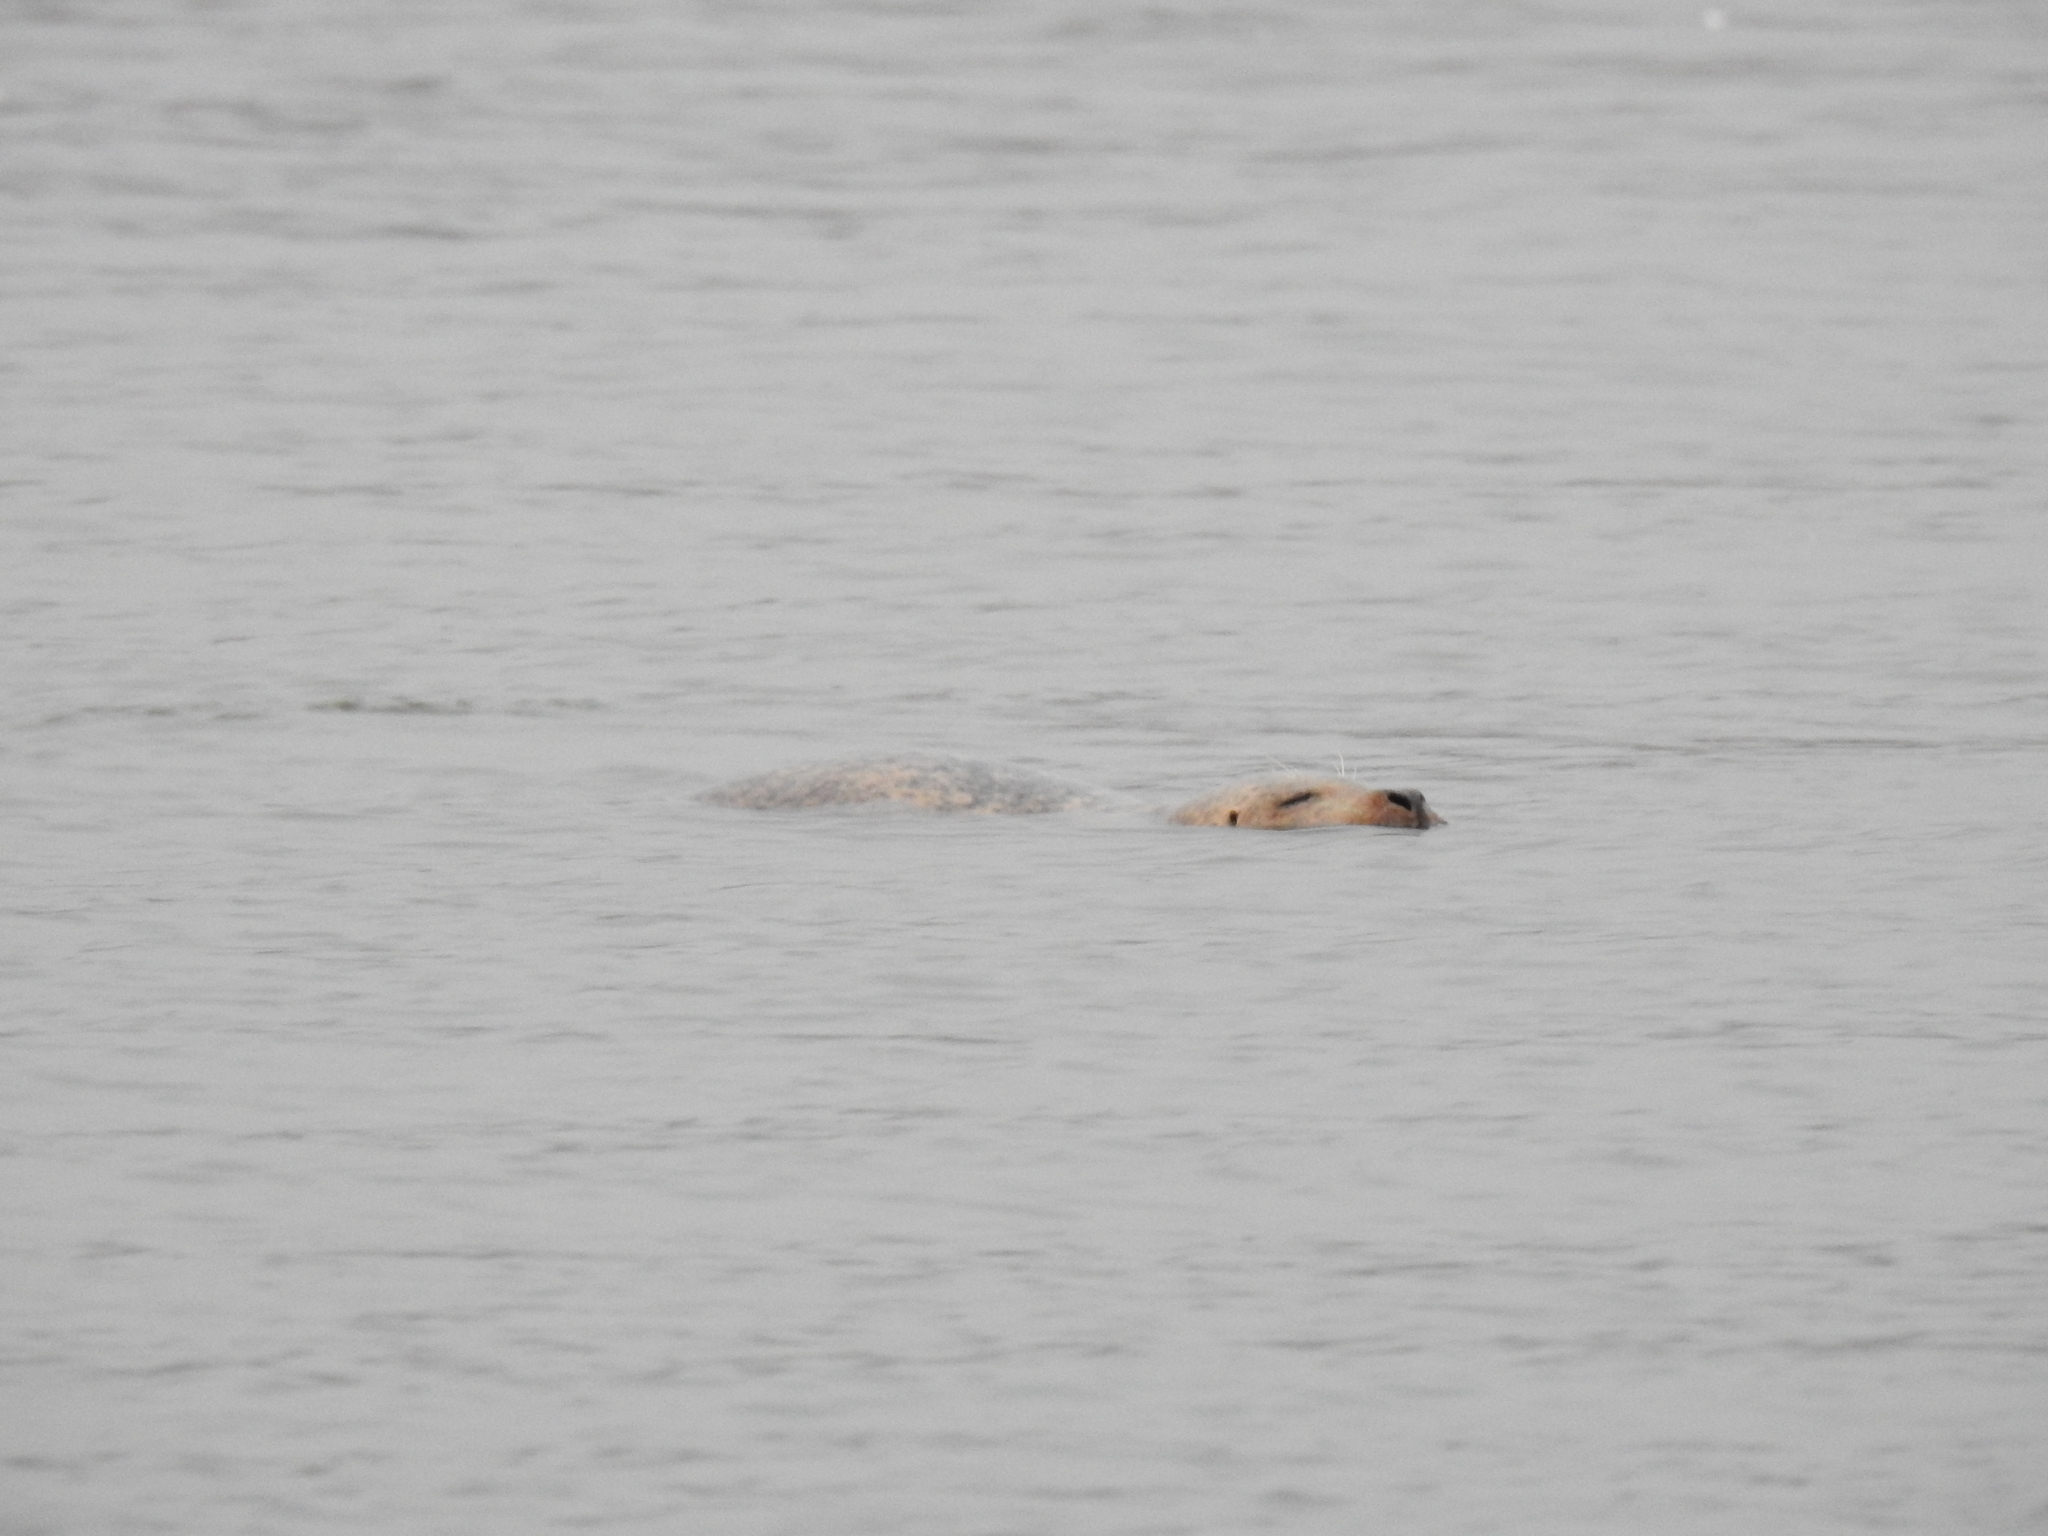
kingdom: Animalia
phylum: Chordata
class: Mammalia
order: Carnivora
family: Phocidae
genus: Phoca
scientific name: Phoca vitulina
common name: Harbor seal
